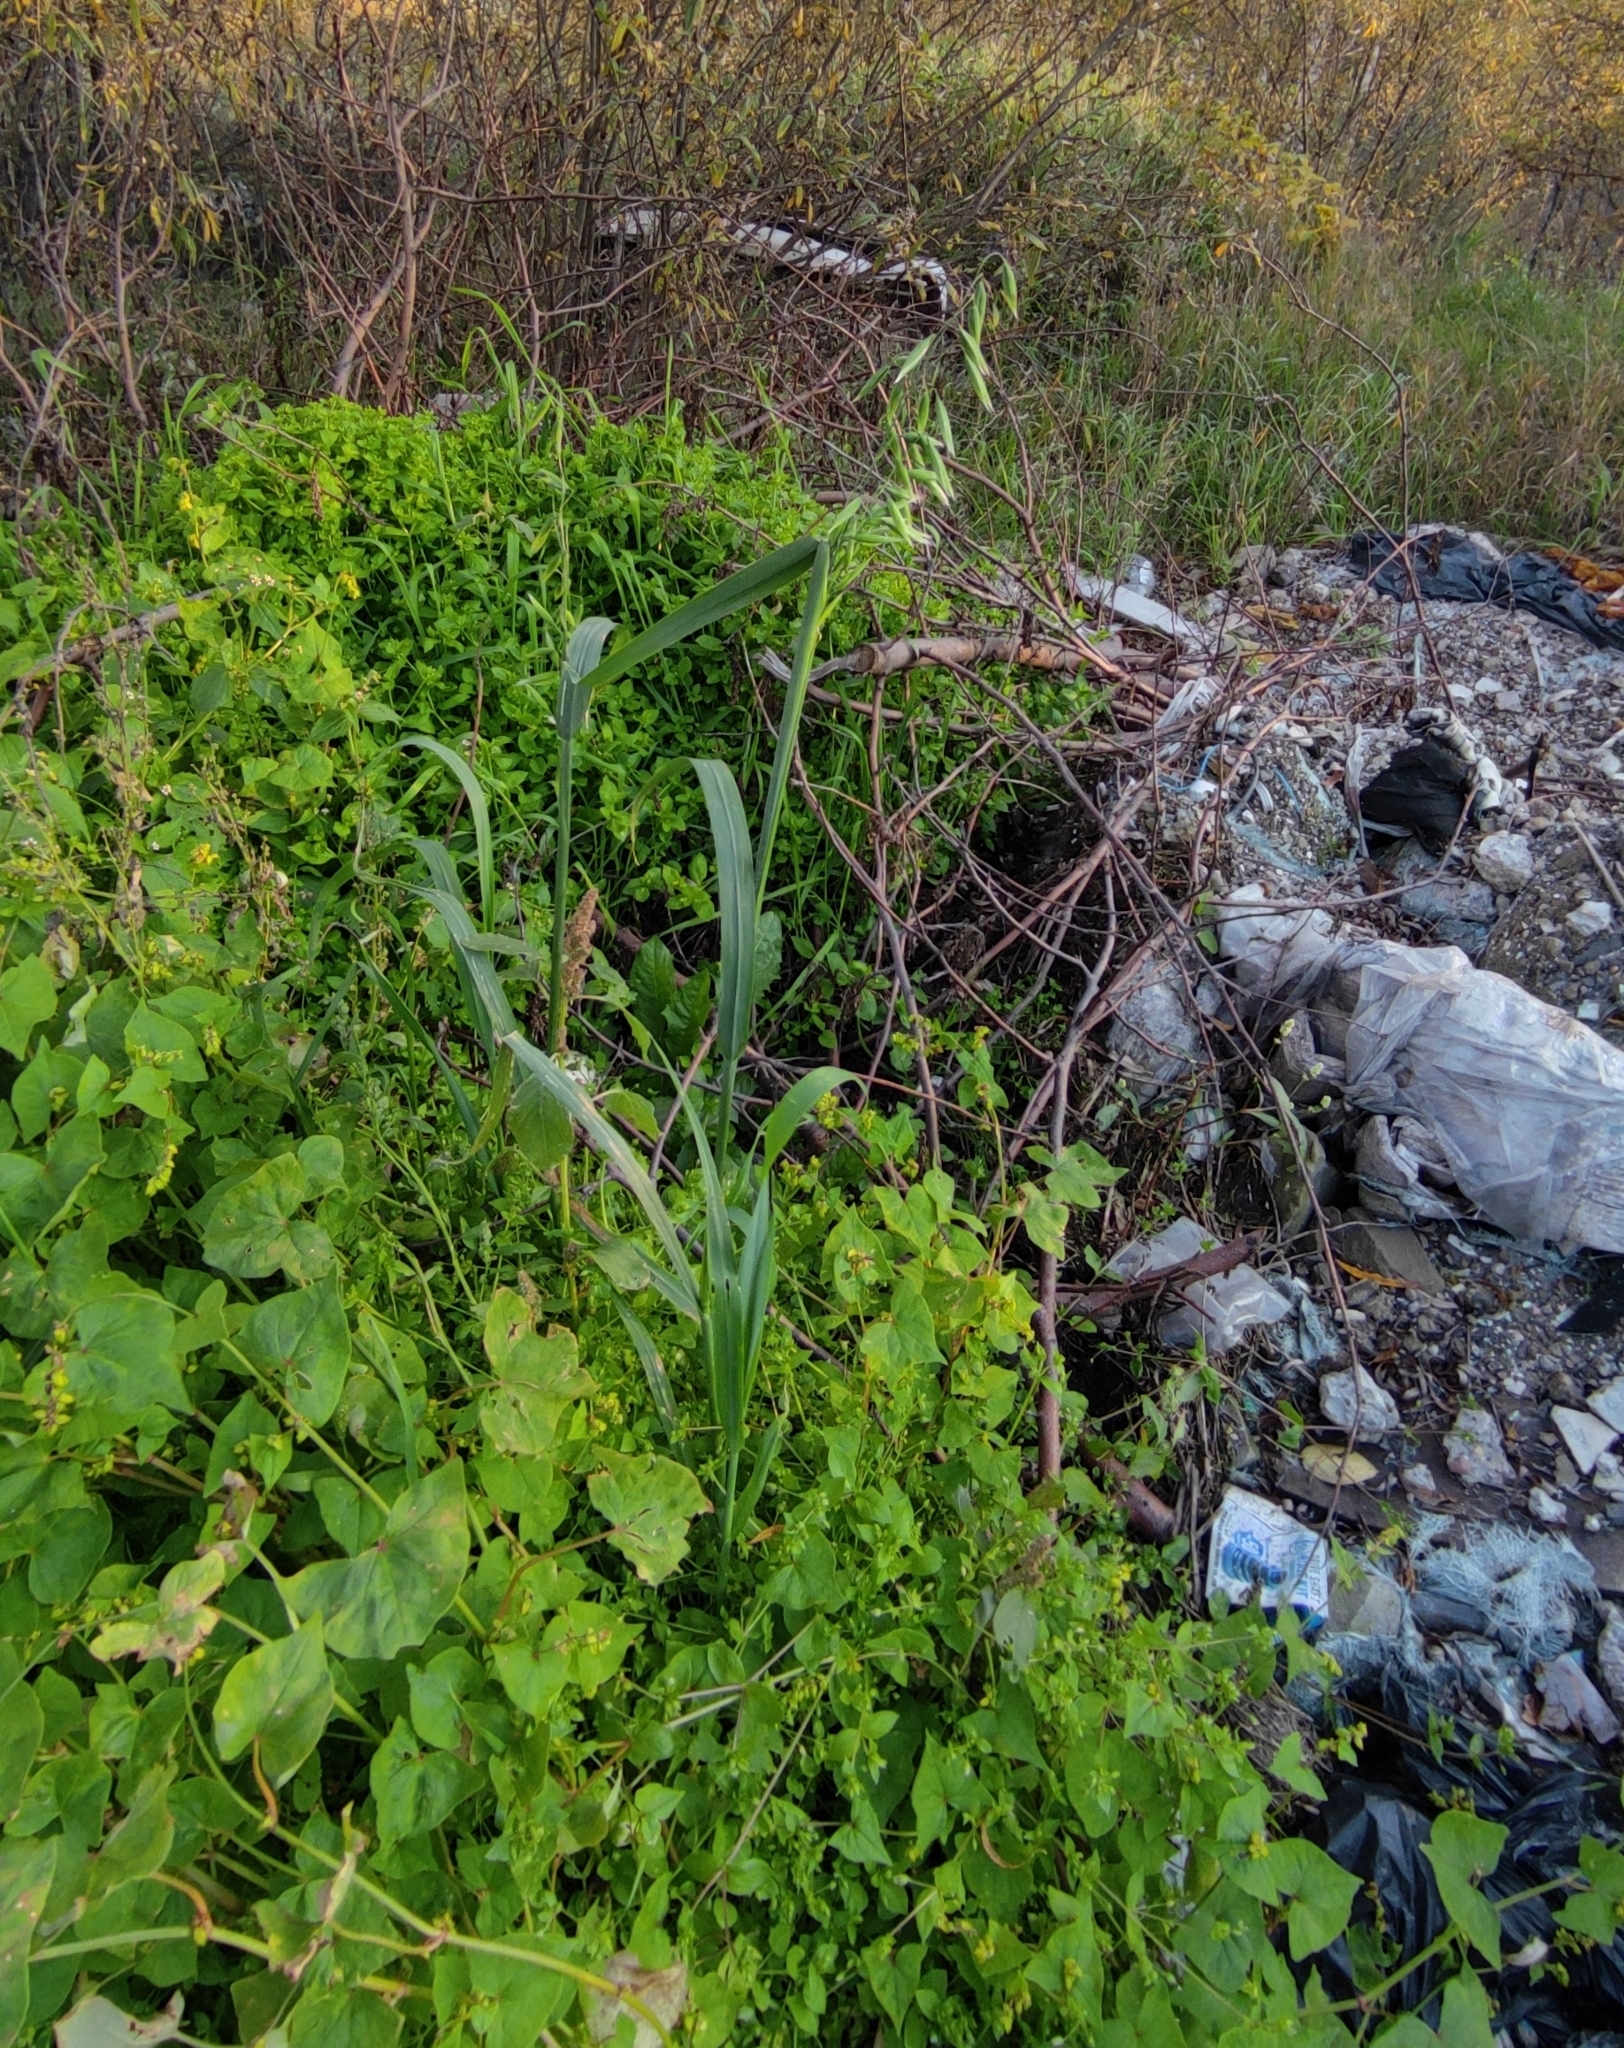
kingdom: Plantae
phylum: Tracheophyta
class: Liliopsida
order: Poales
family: Poaceae
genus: Avena
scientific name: Avena sativa
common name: Oat
